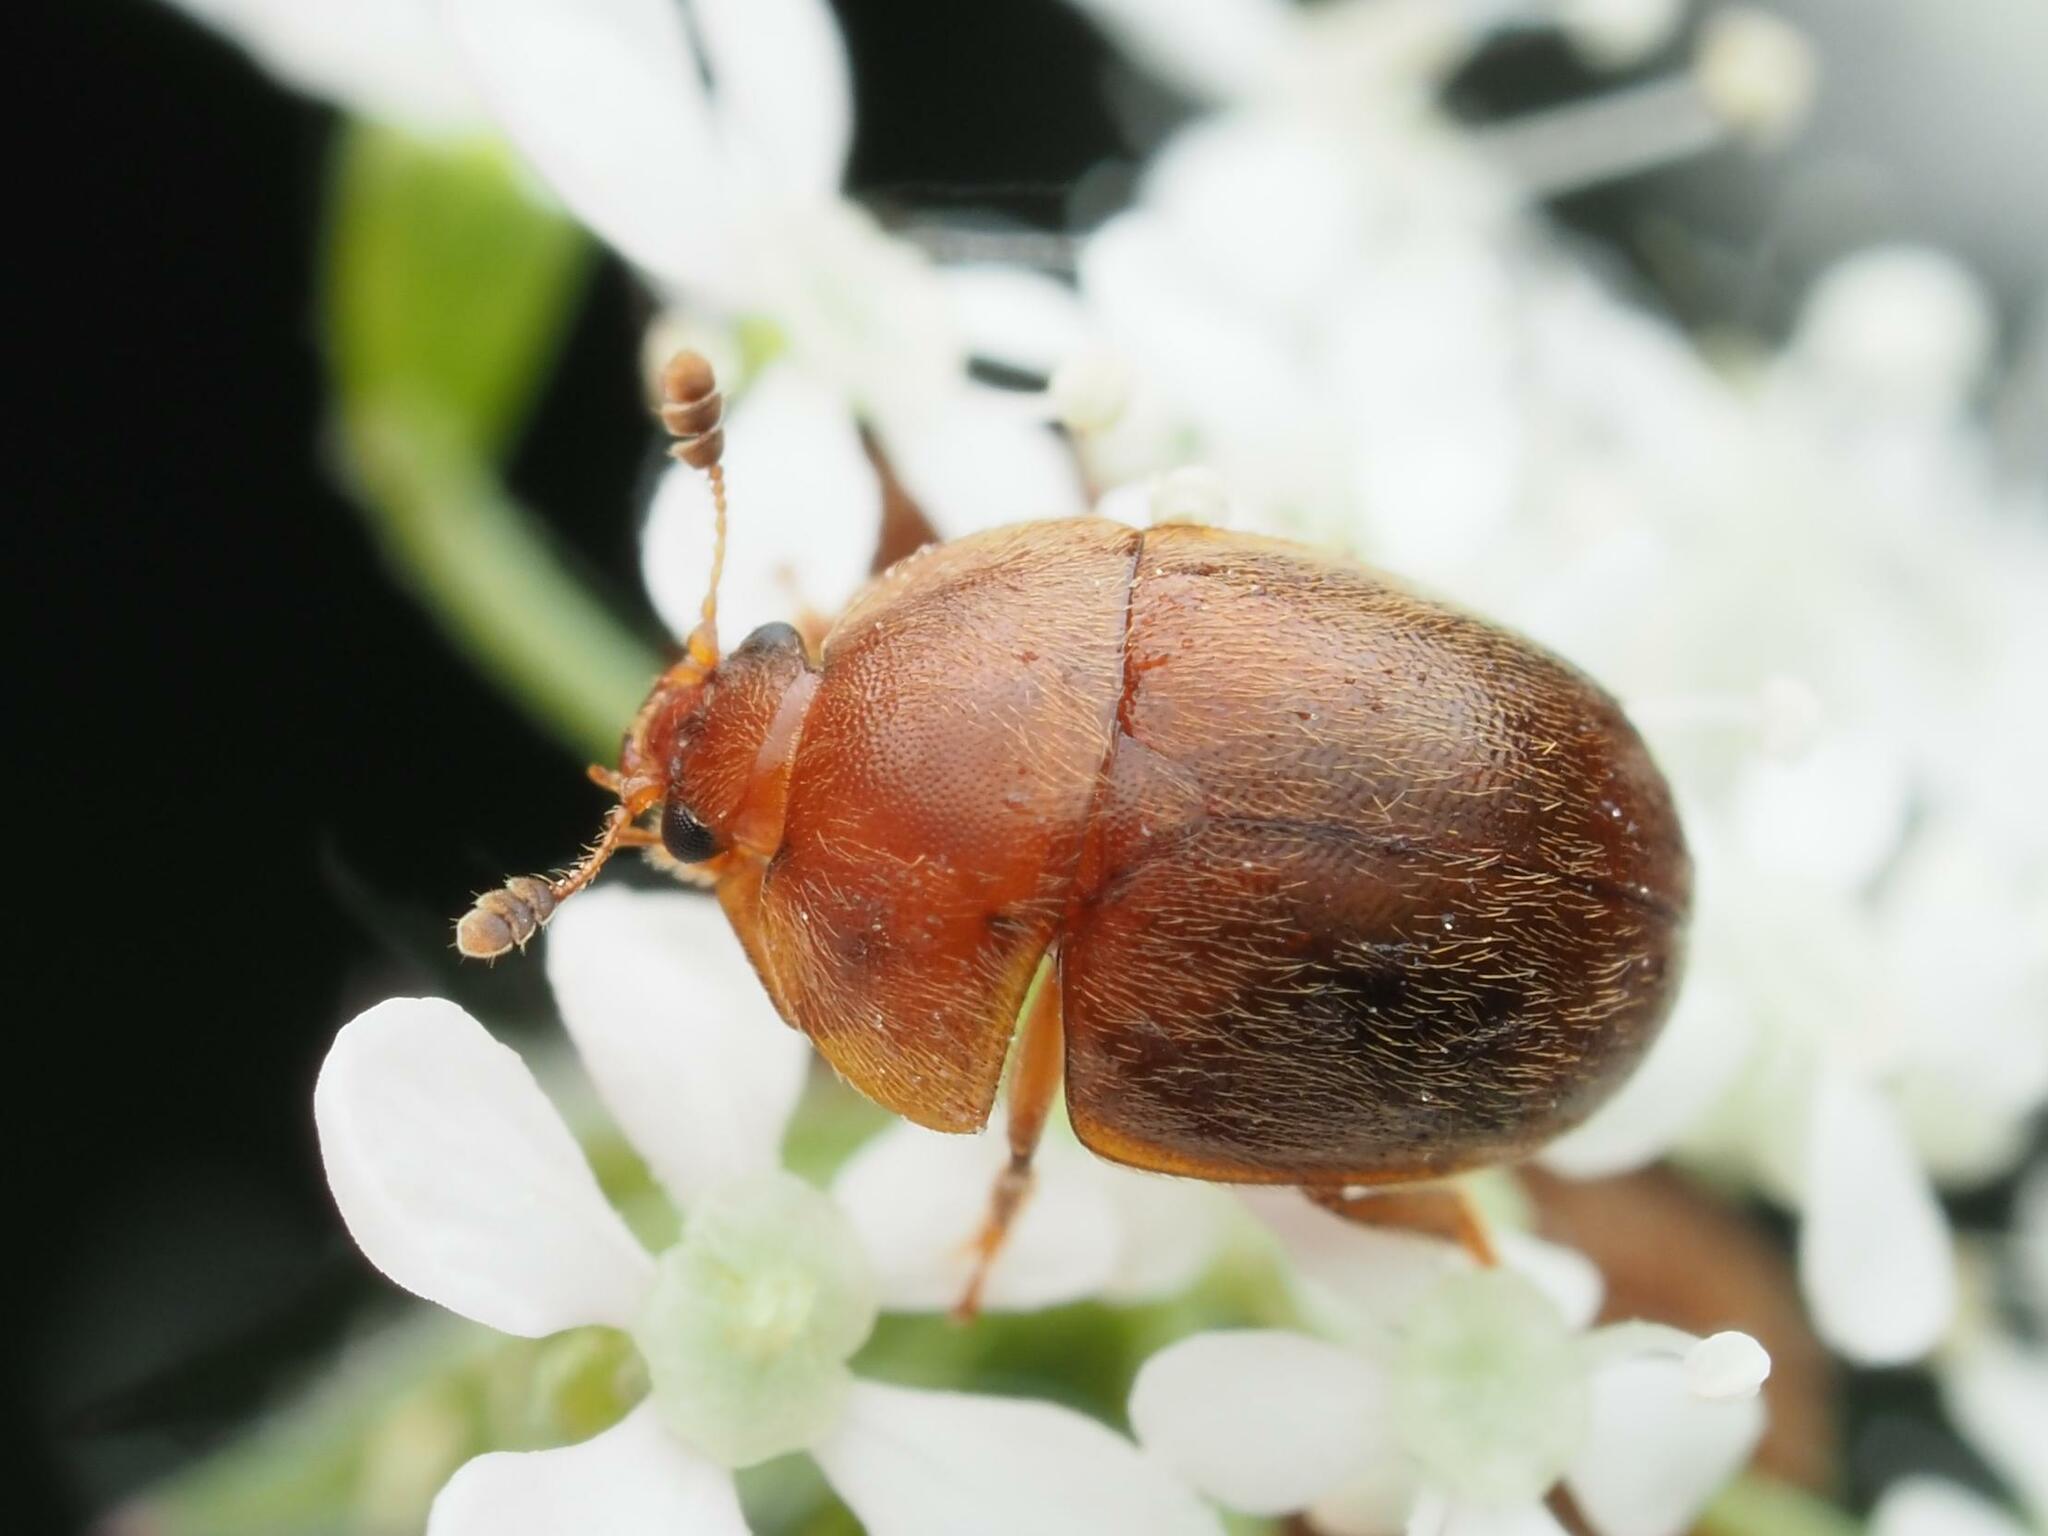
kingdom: Animalia
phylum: Arthropoda
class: Insecta
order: Coleoptera
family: Nitidulidae
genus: Cychramus
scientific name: Cychramus luteus
